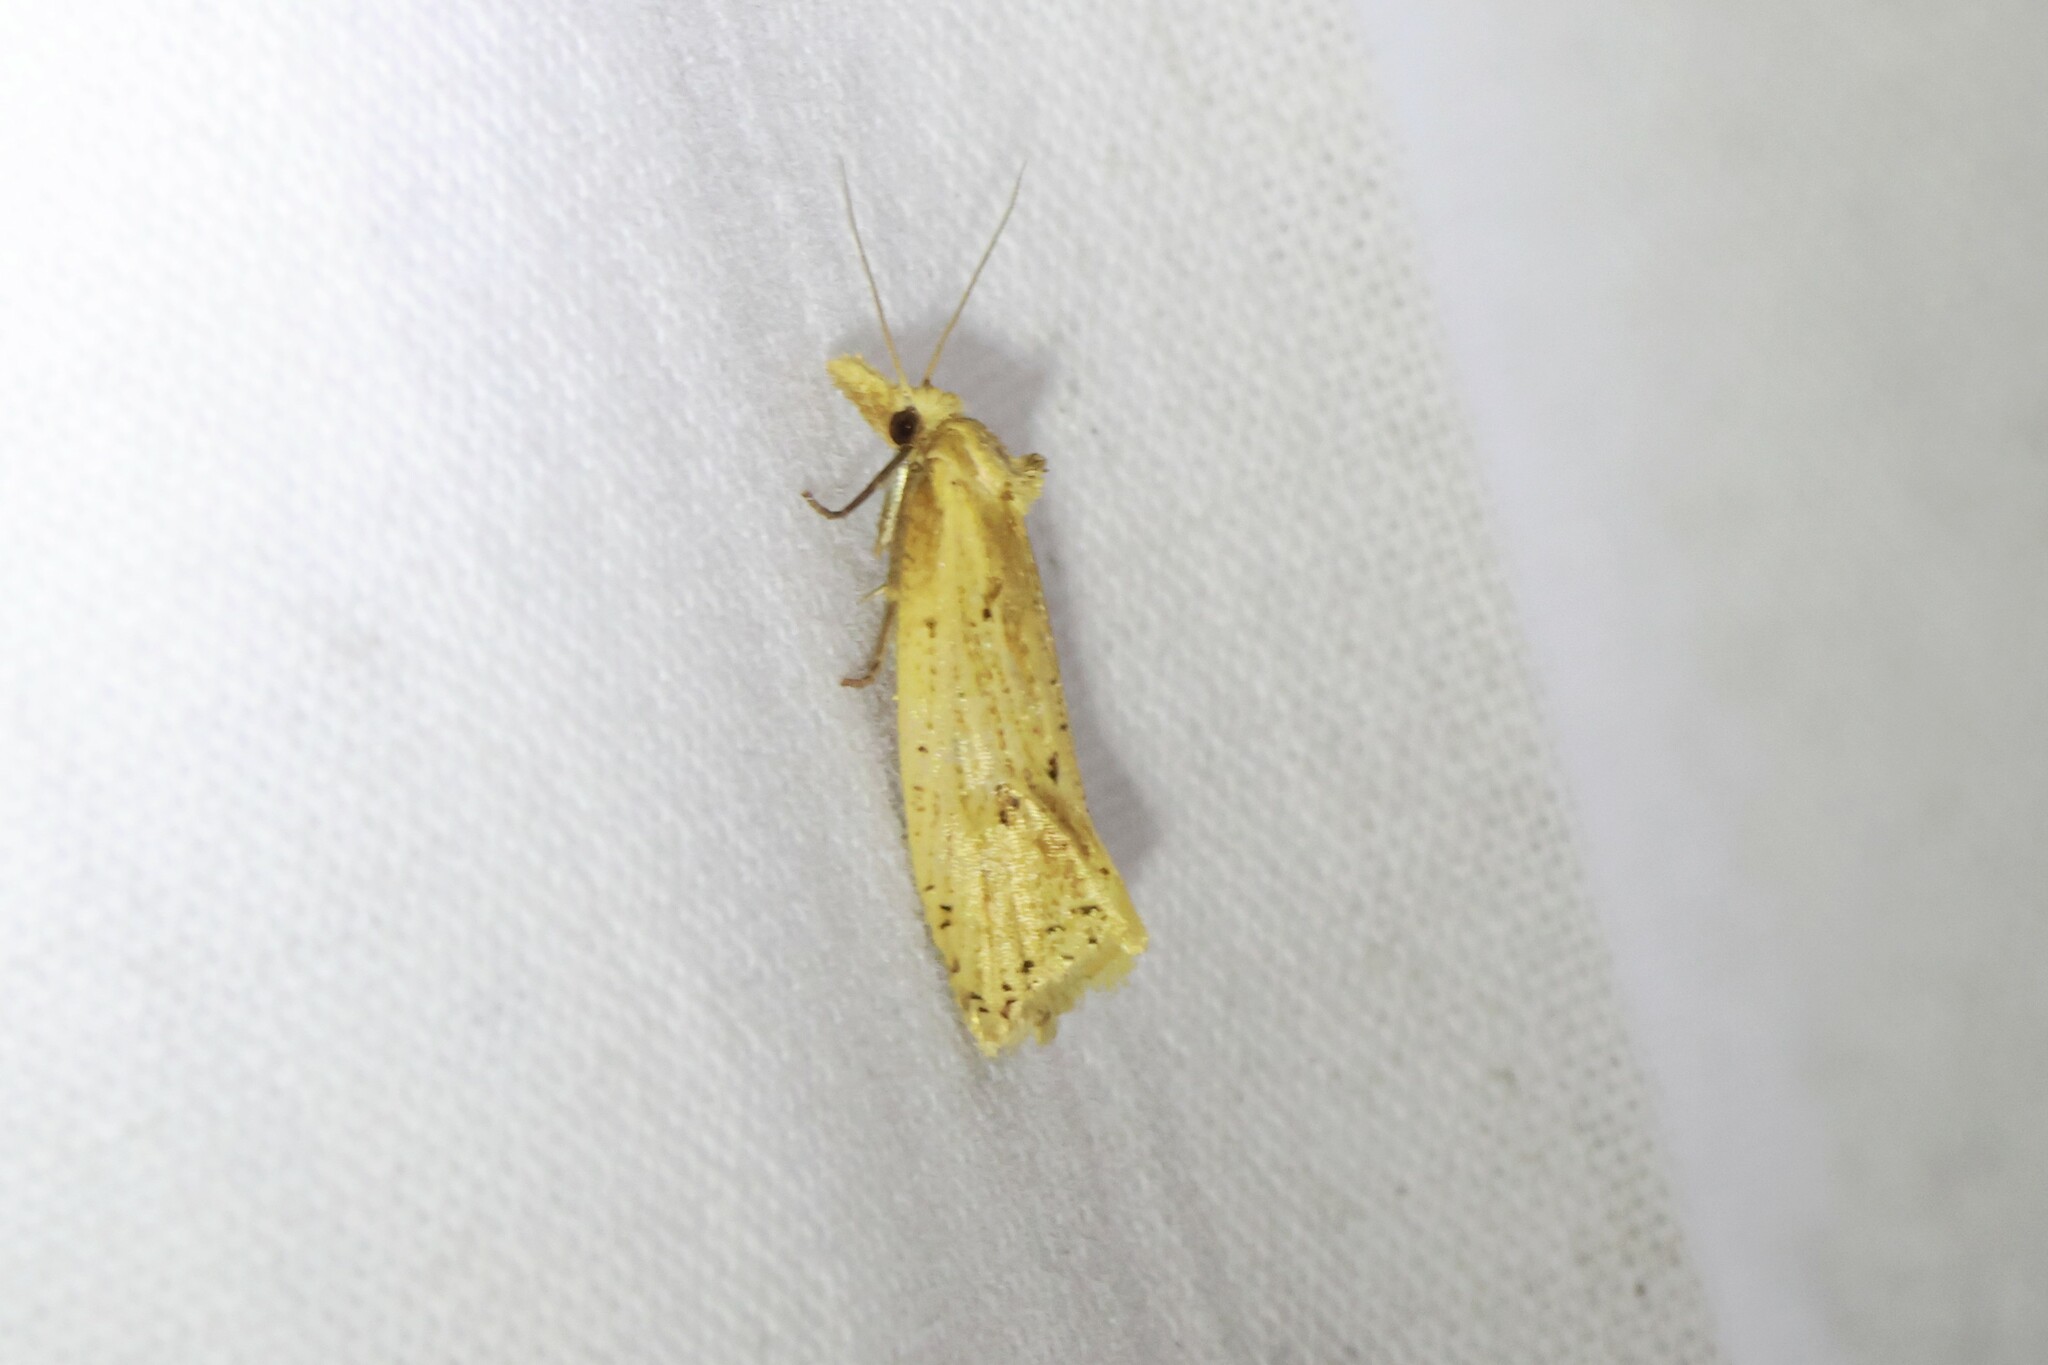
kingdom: Animalia
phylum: Arthropoda
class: Insecta
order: Lepidoptera
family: Tortricidae
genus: Aethes
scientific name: Aethes atomosana
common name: Two-spotted aethes
